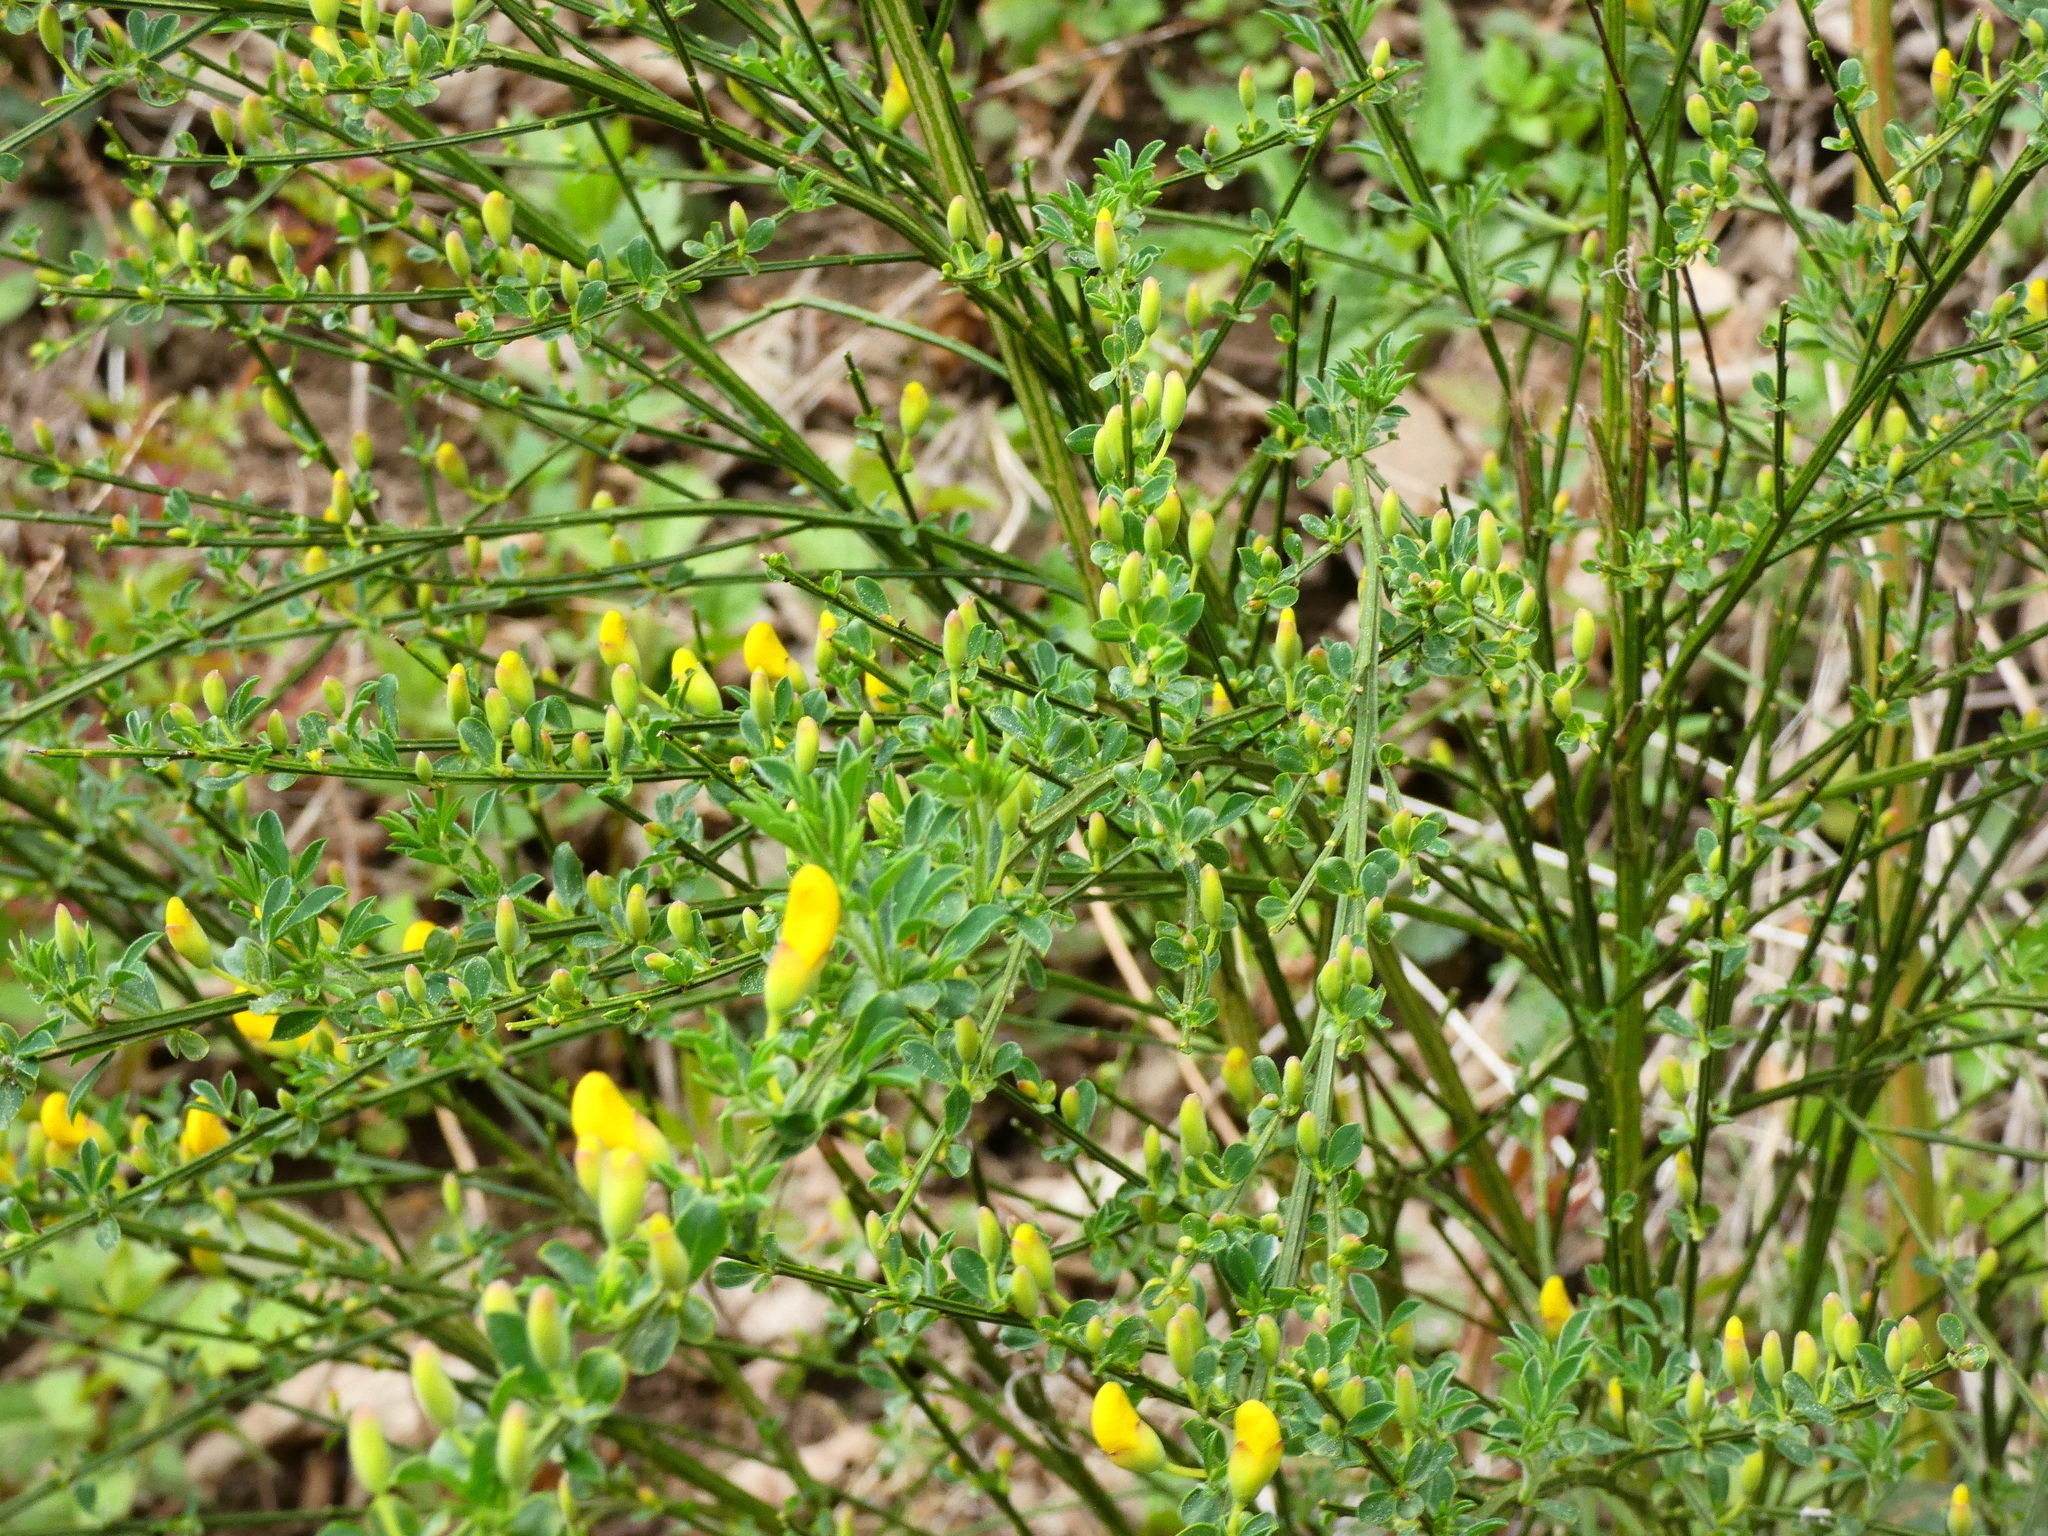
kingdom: Plantae
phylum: Tracheophyta
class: Magnoliopsida
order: Fabales
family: Fabaceae
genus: Cytisus
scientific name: Cytisus scoparius
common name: Scotch broom
